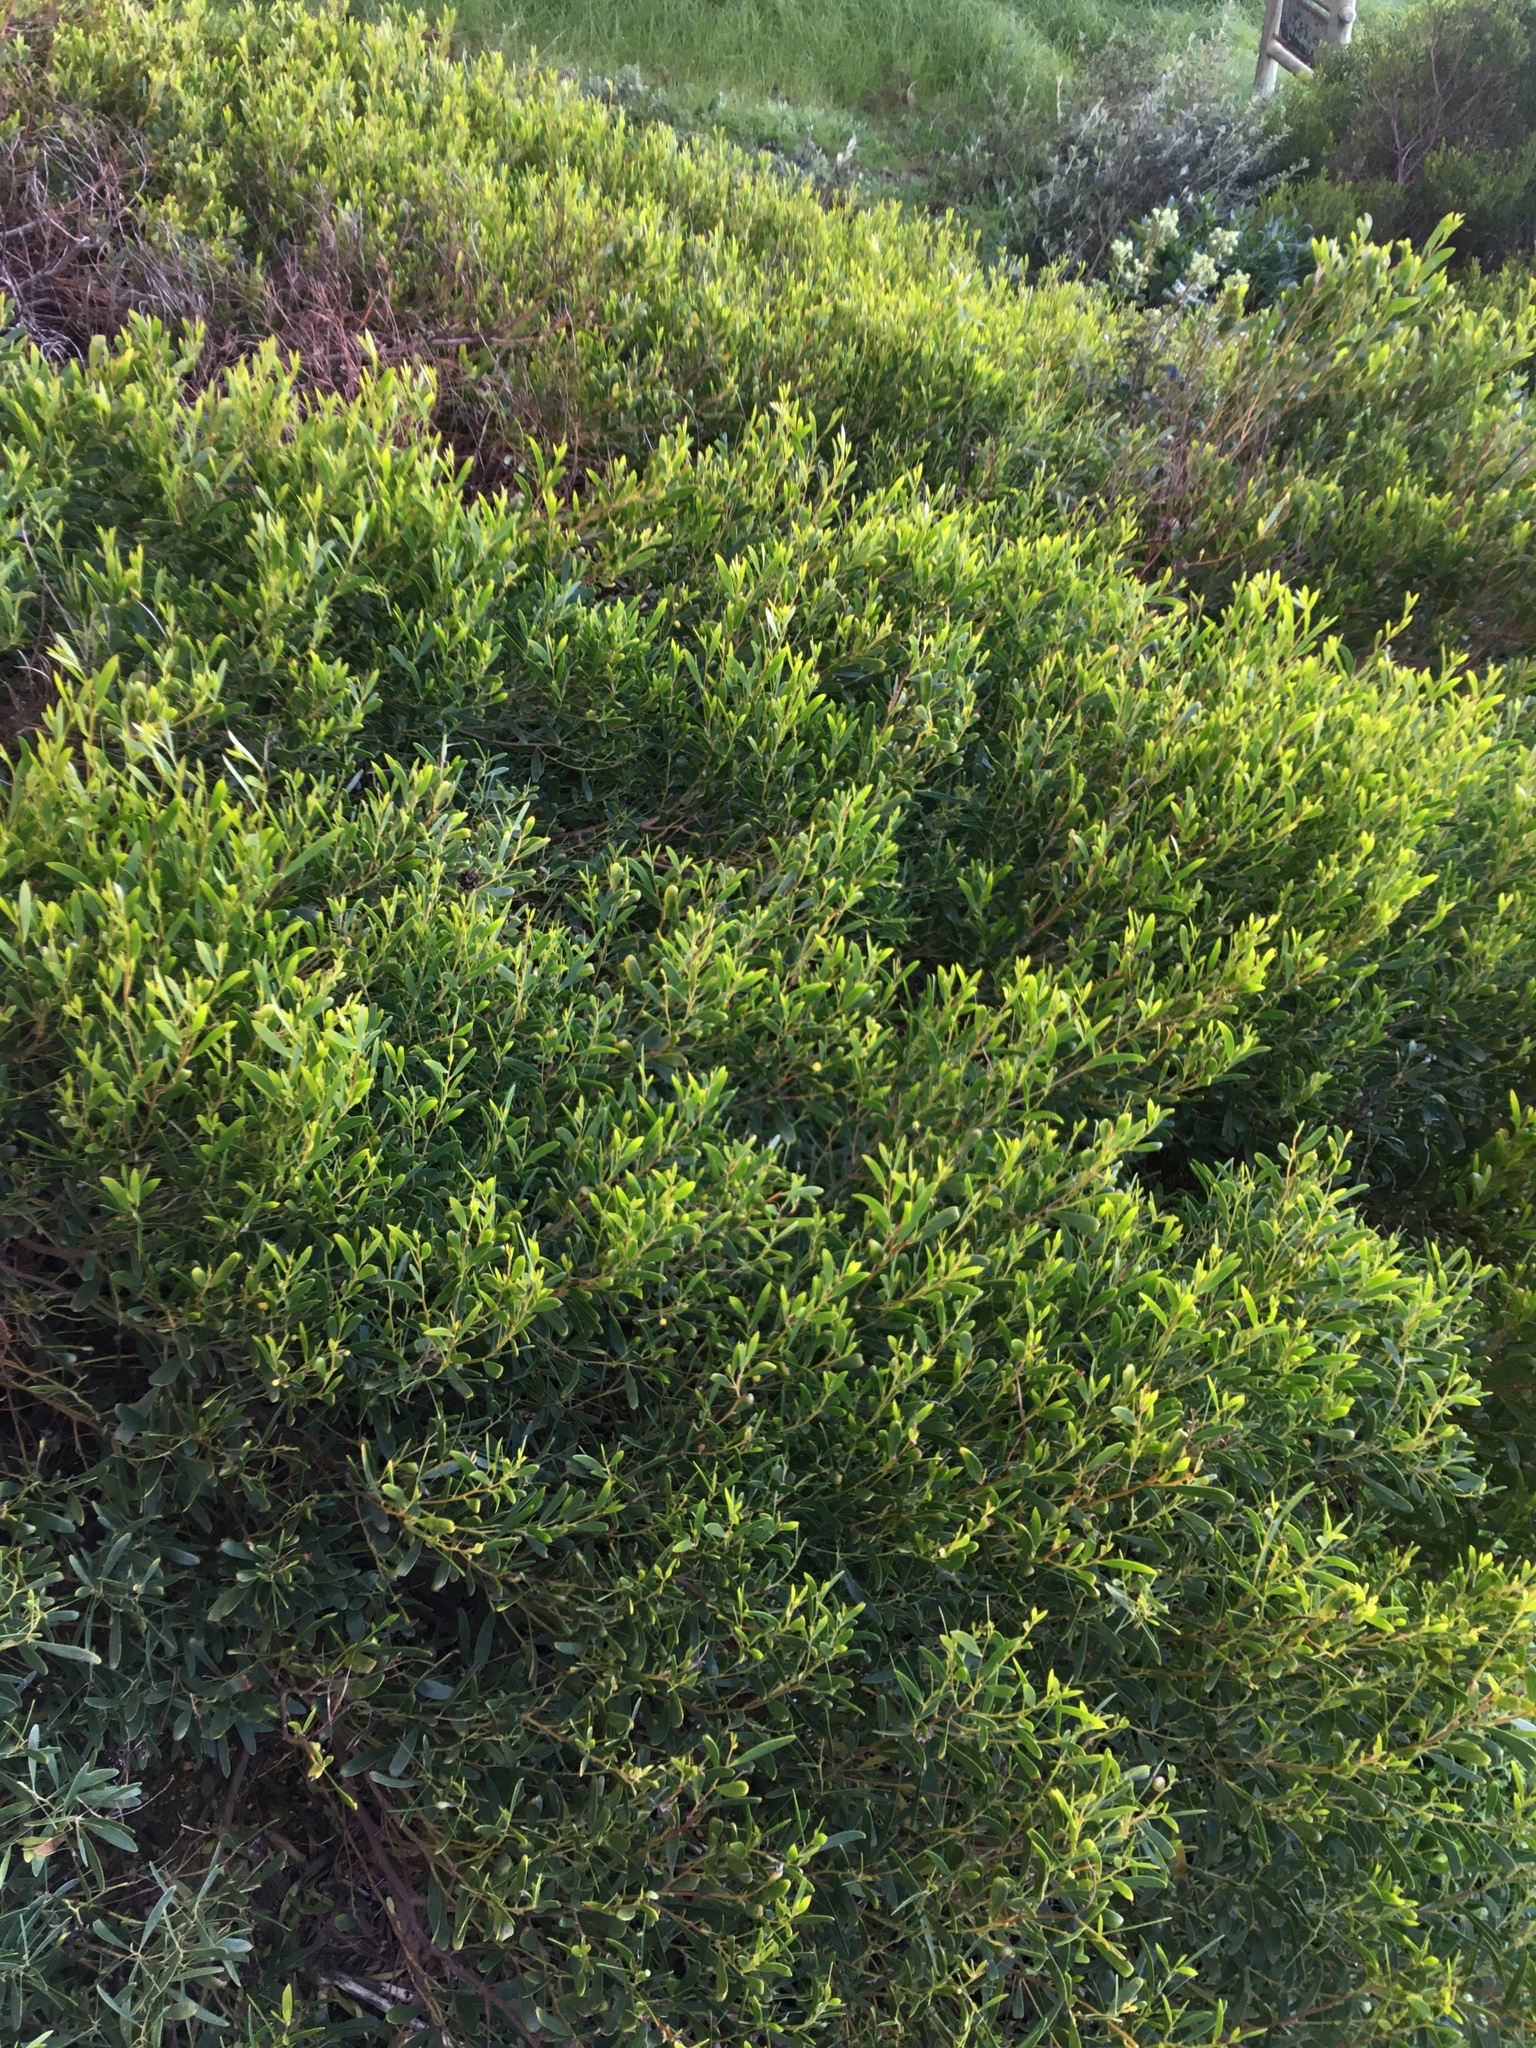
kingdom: Plantae
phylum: Tracheophyta
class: Magnoliopsida
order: Fabales
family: Fabaceae
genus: Acacia
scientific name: Acacia cyclops
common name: Coastal wattle
